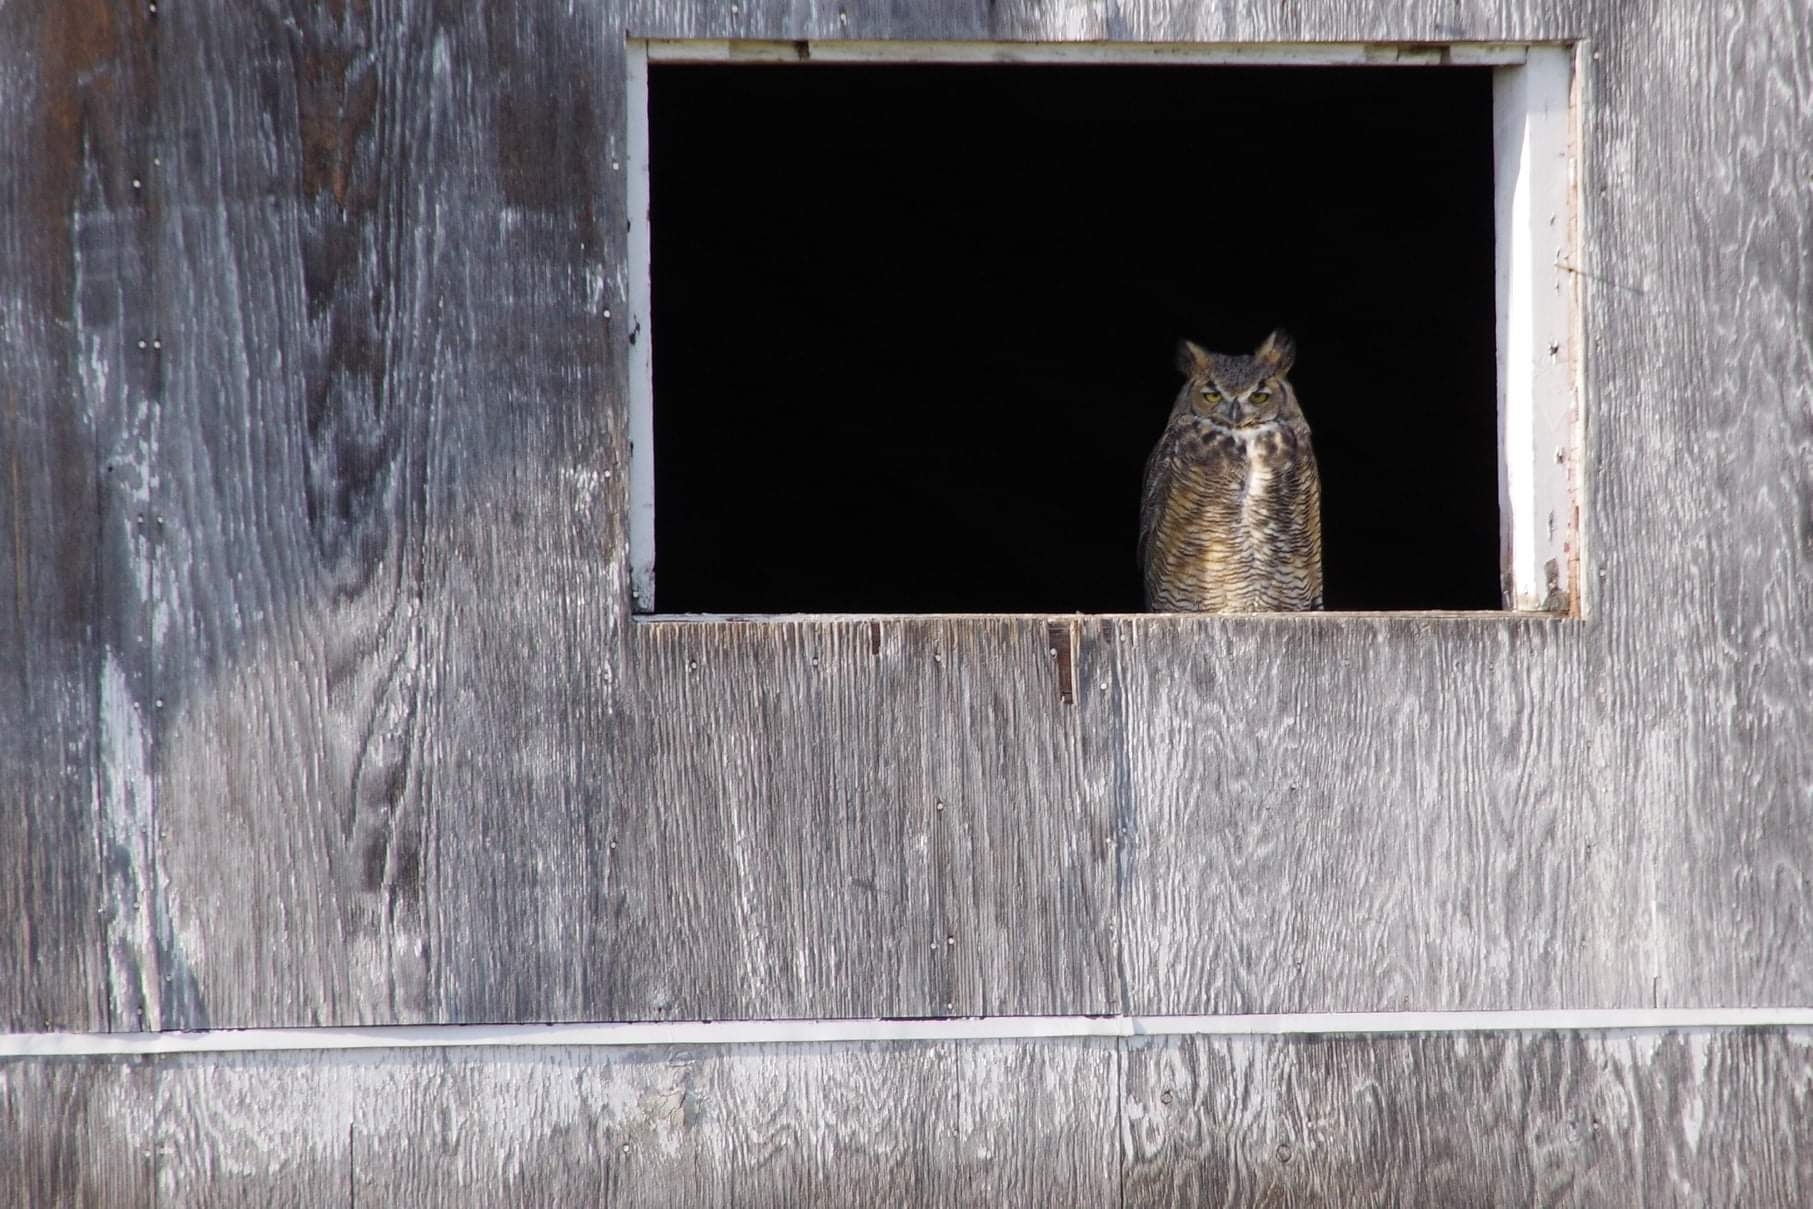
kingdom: Animalia
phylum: Chordata
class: Aves
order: Strigiformes
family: Strigidae
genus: Bubo
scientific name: Bubo virginianus
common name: Great horned owl
